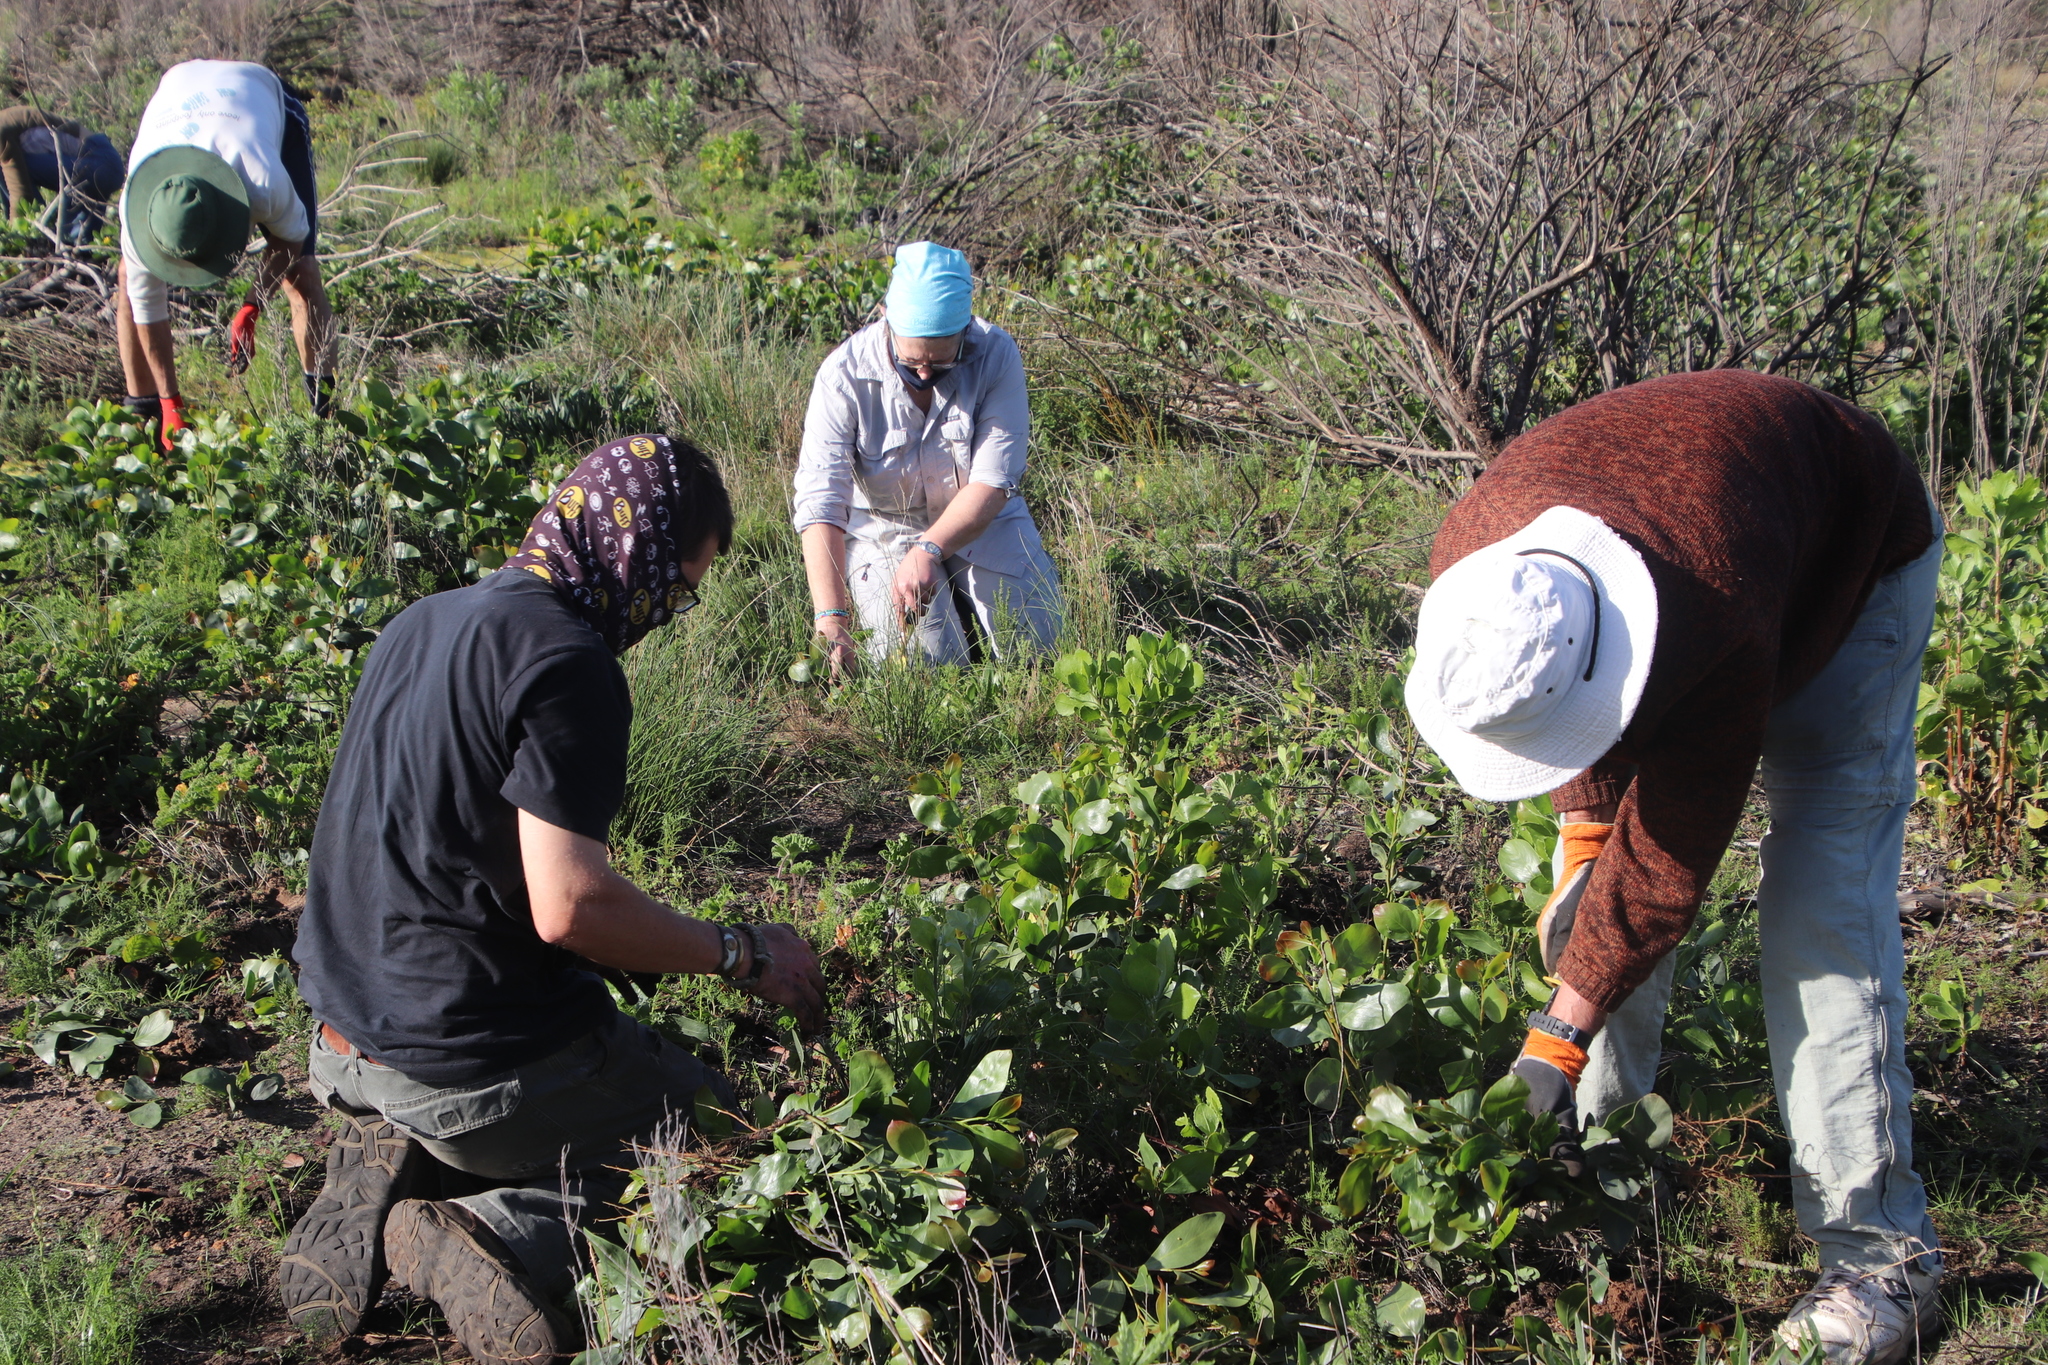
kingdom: Plantae
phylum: Tracheophyta
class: Magnoliopsida
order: Fabales
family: Fabaceae
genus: Acacia
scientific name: Acacia pycnantha
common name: Golden wattle
